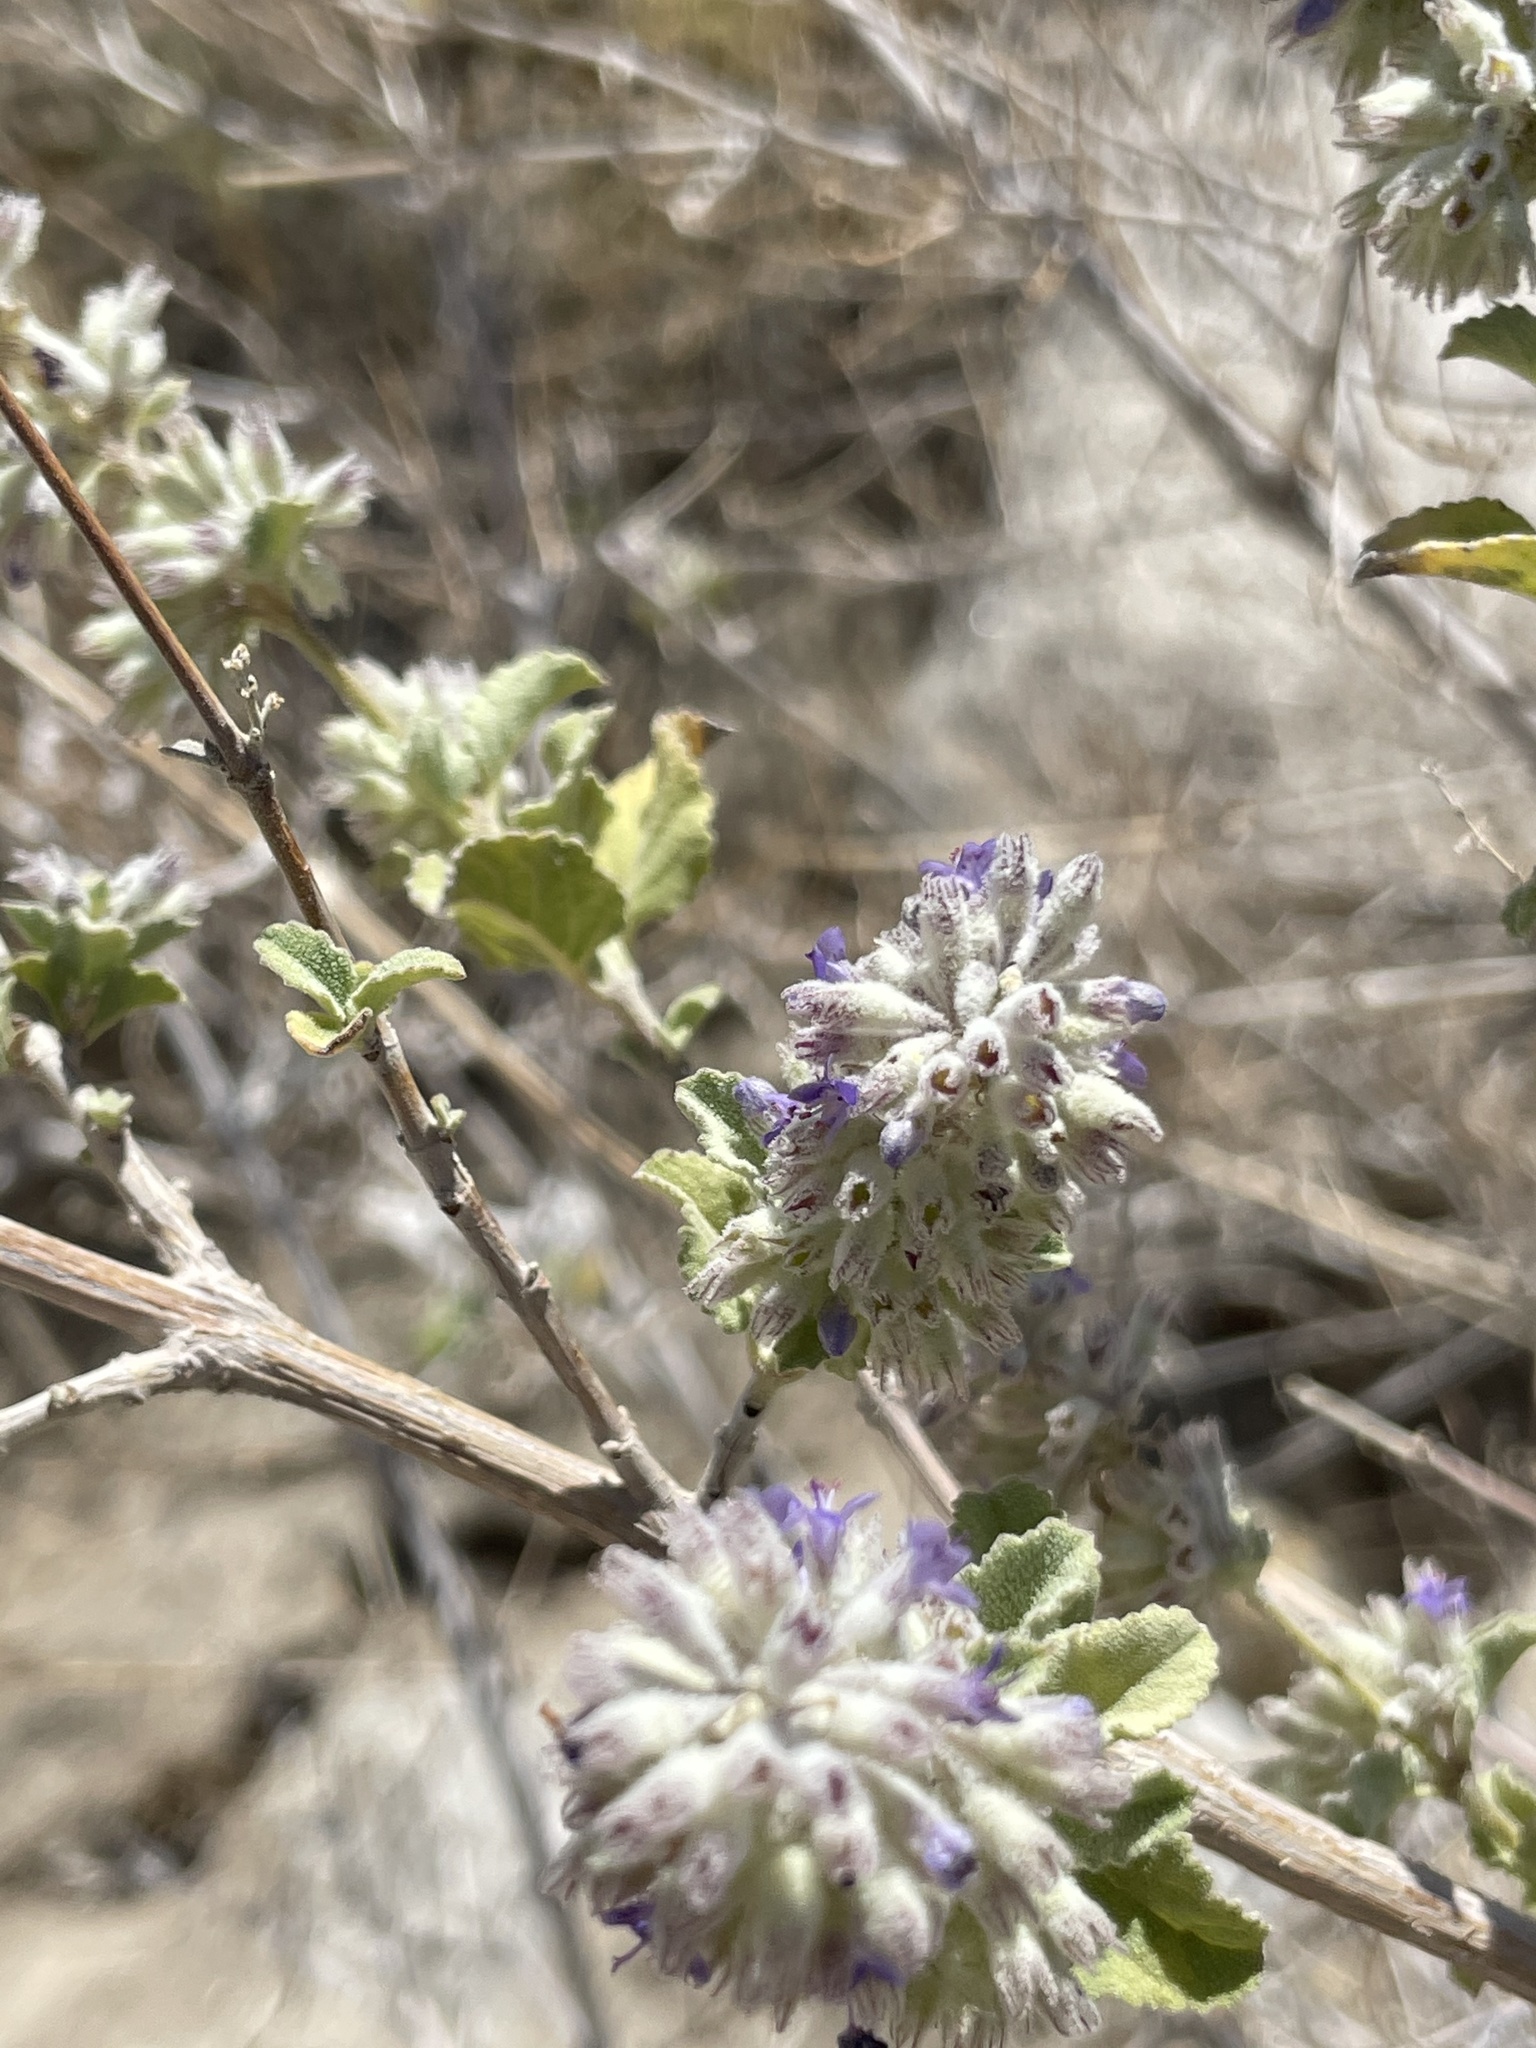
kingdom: Plantae
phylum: Tracheophyta
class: Magnoliopsida
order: Lamiales
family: Lamiaceae
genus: Condea
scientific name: Condea emoryi
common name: Chia
